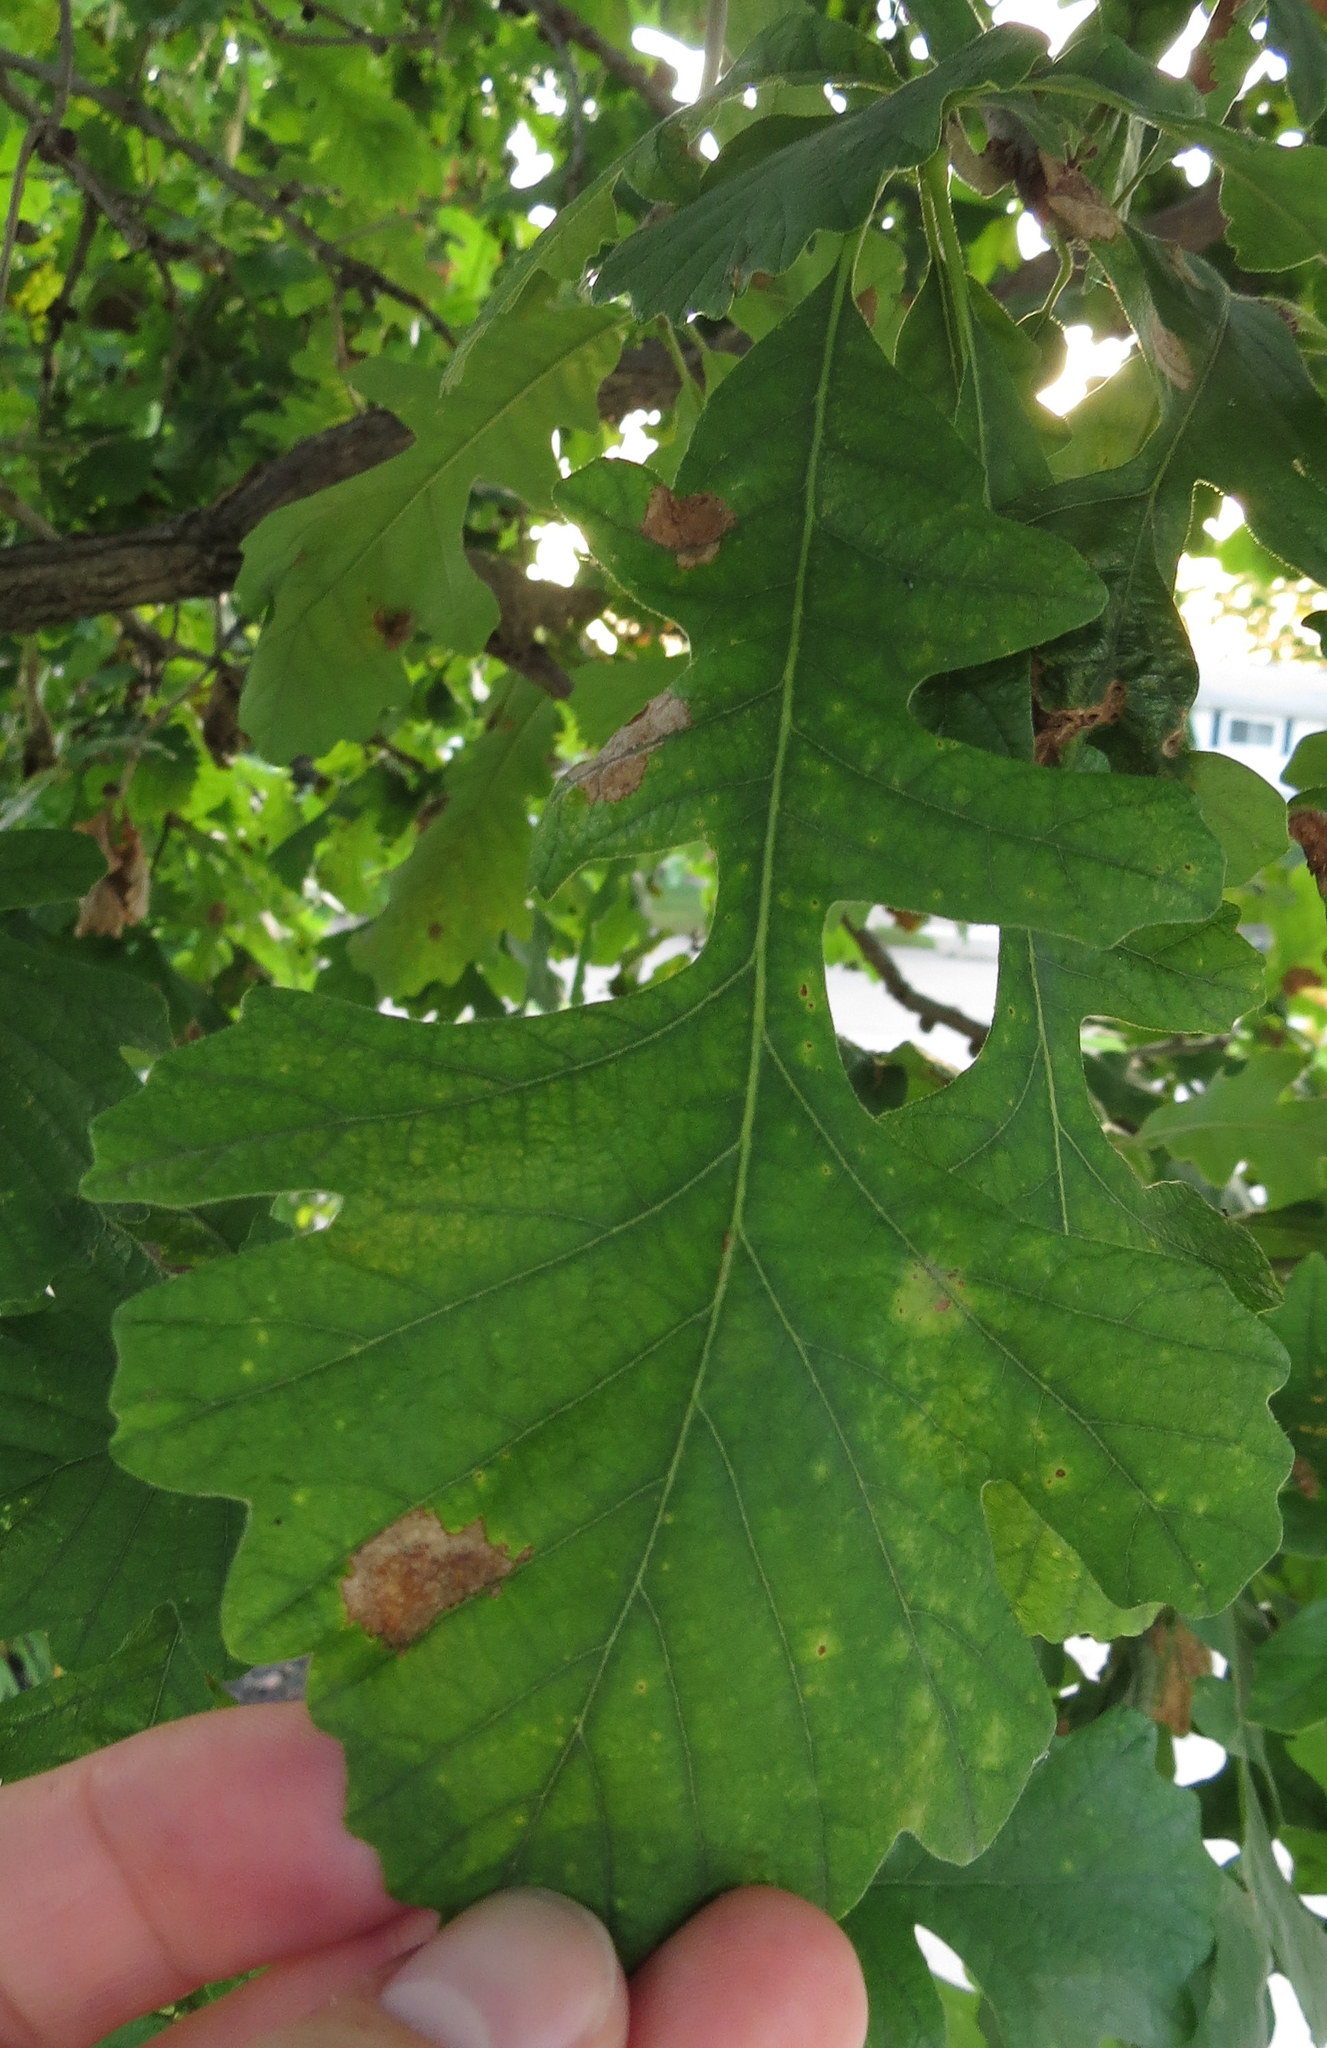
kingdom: Plantae
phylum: Tracheophyta
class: Magnoliopsida
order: Fagales
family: Fagaceae
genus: Quercus
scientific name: Quercus macrocarpa
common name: Bur oak
